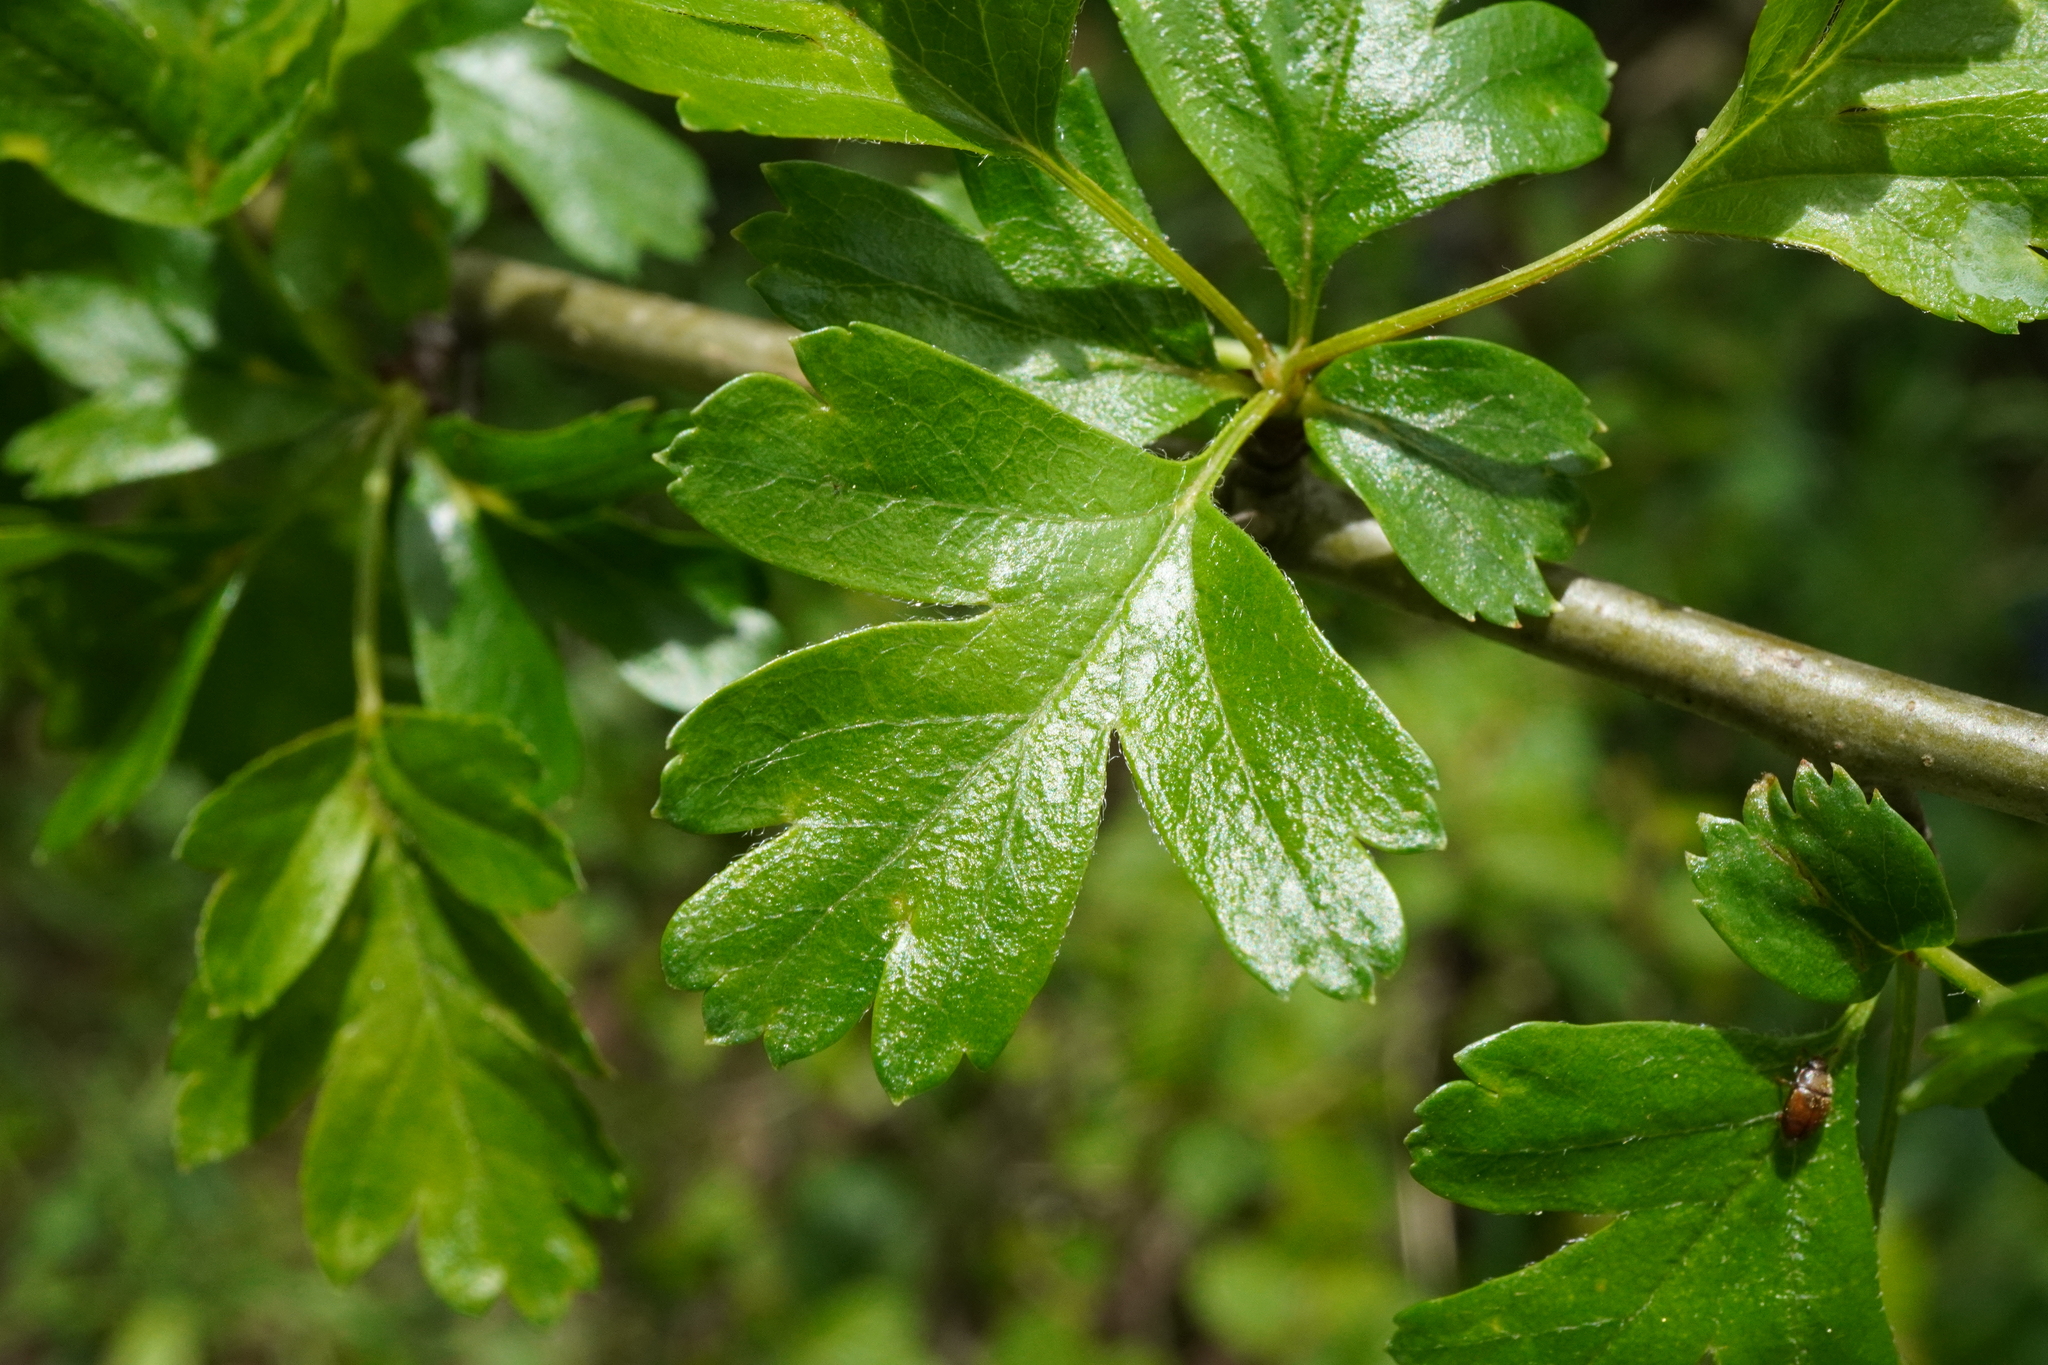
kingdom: Plantae
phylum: Tracheophyta
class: Magnoliopsida
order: Rosales
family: Rosaceae
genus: Crataegus
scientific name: Crataegus monogyna
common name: Hawthorn
